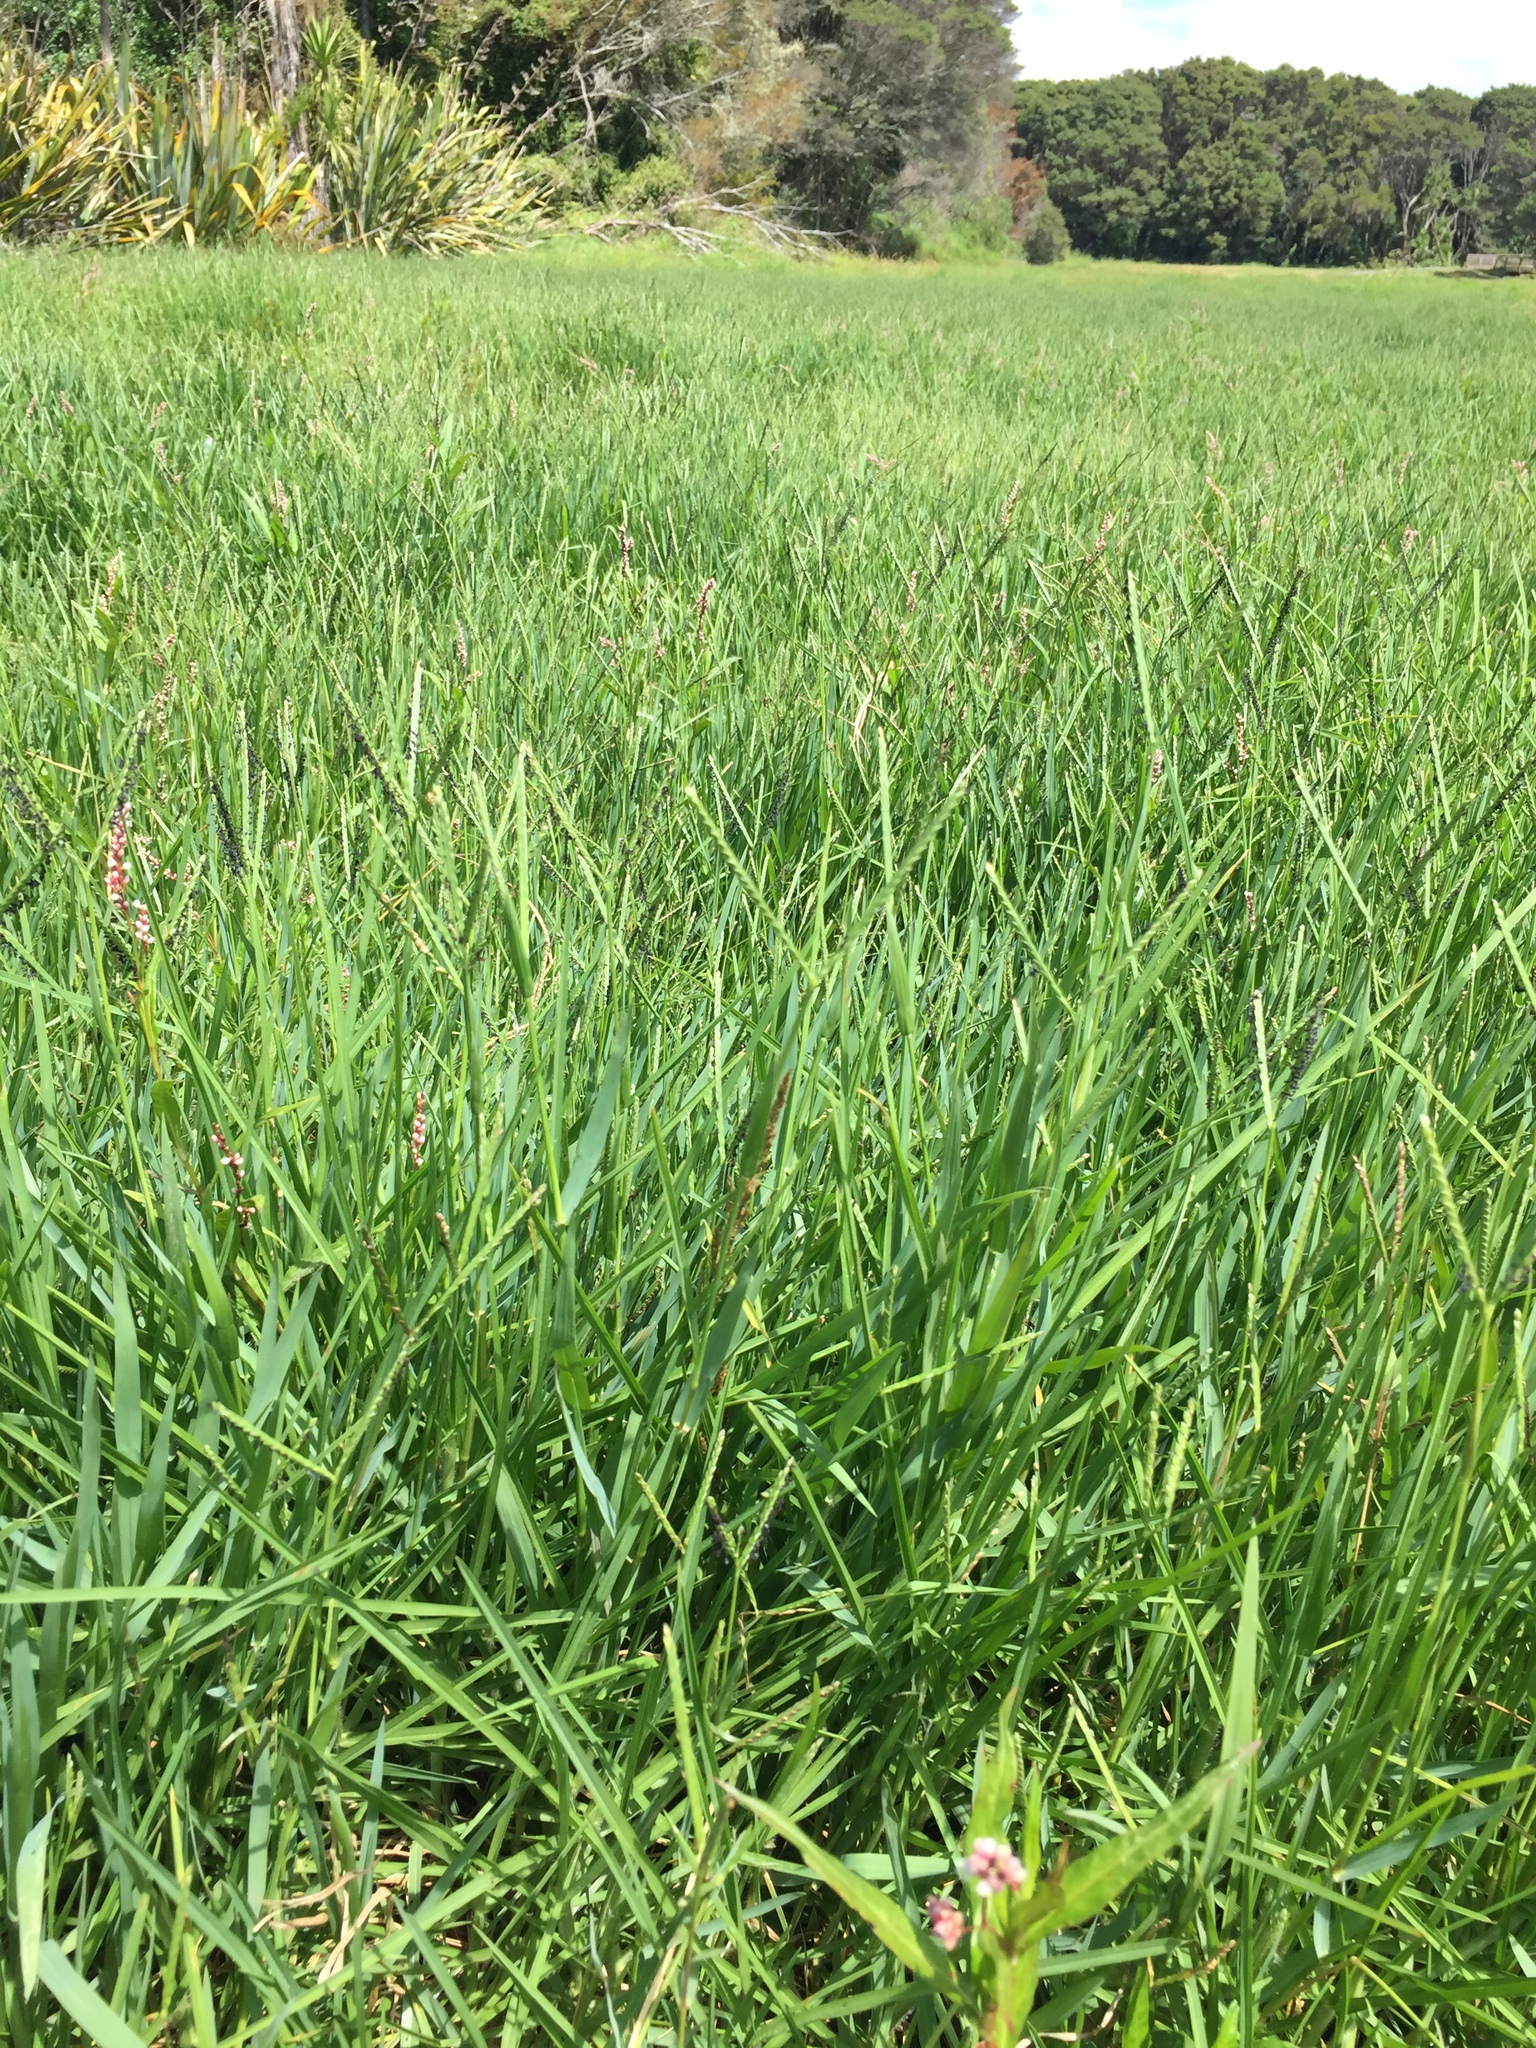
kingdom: Plantae
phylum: Tracheophyta
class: Liliopsida
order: Poales
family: Poaceae
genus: Paspalum
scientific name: Paspalum distichum
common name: Knotgrass
